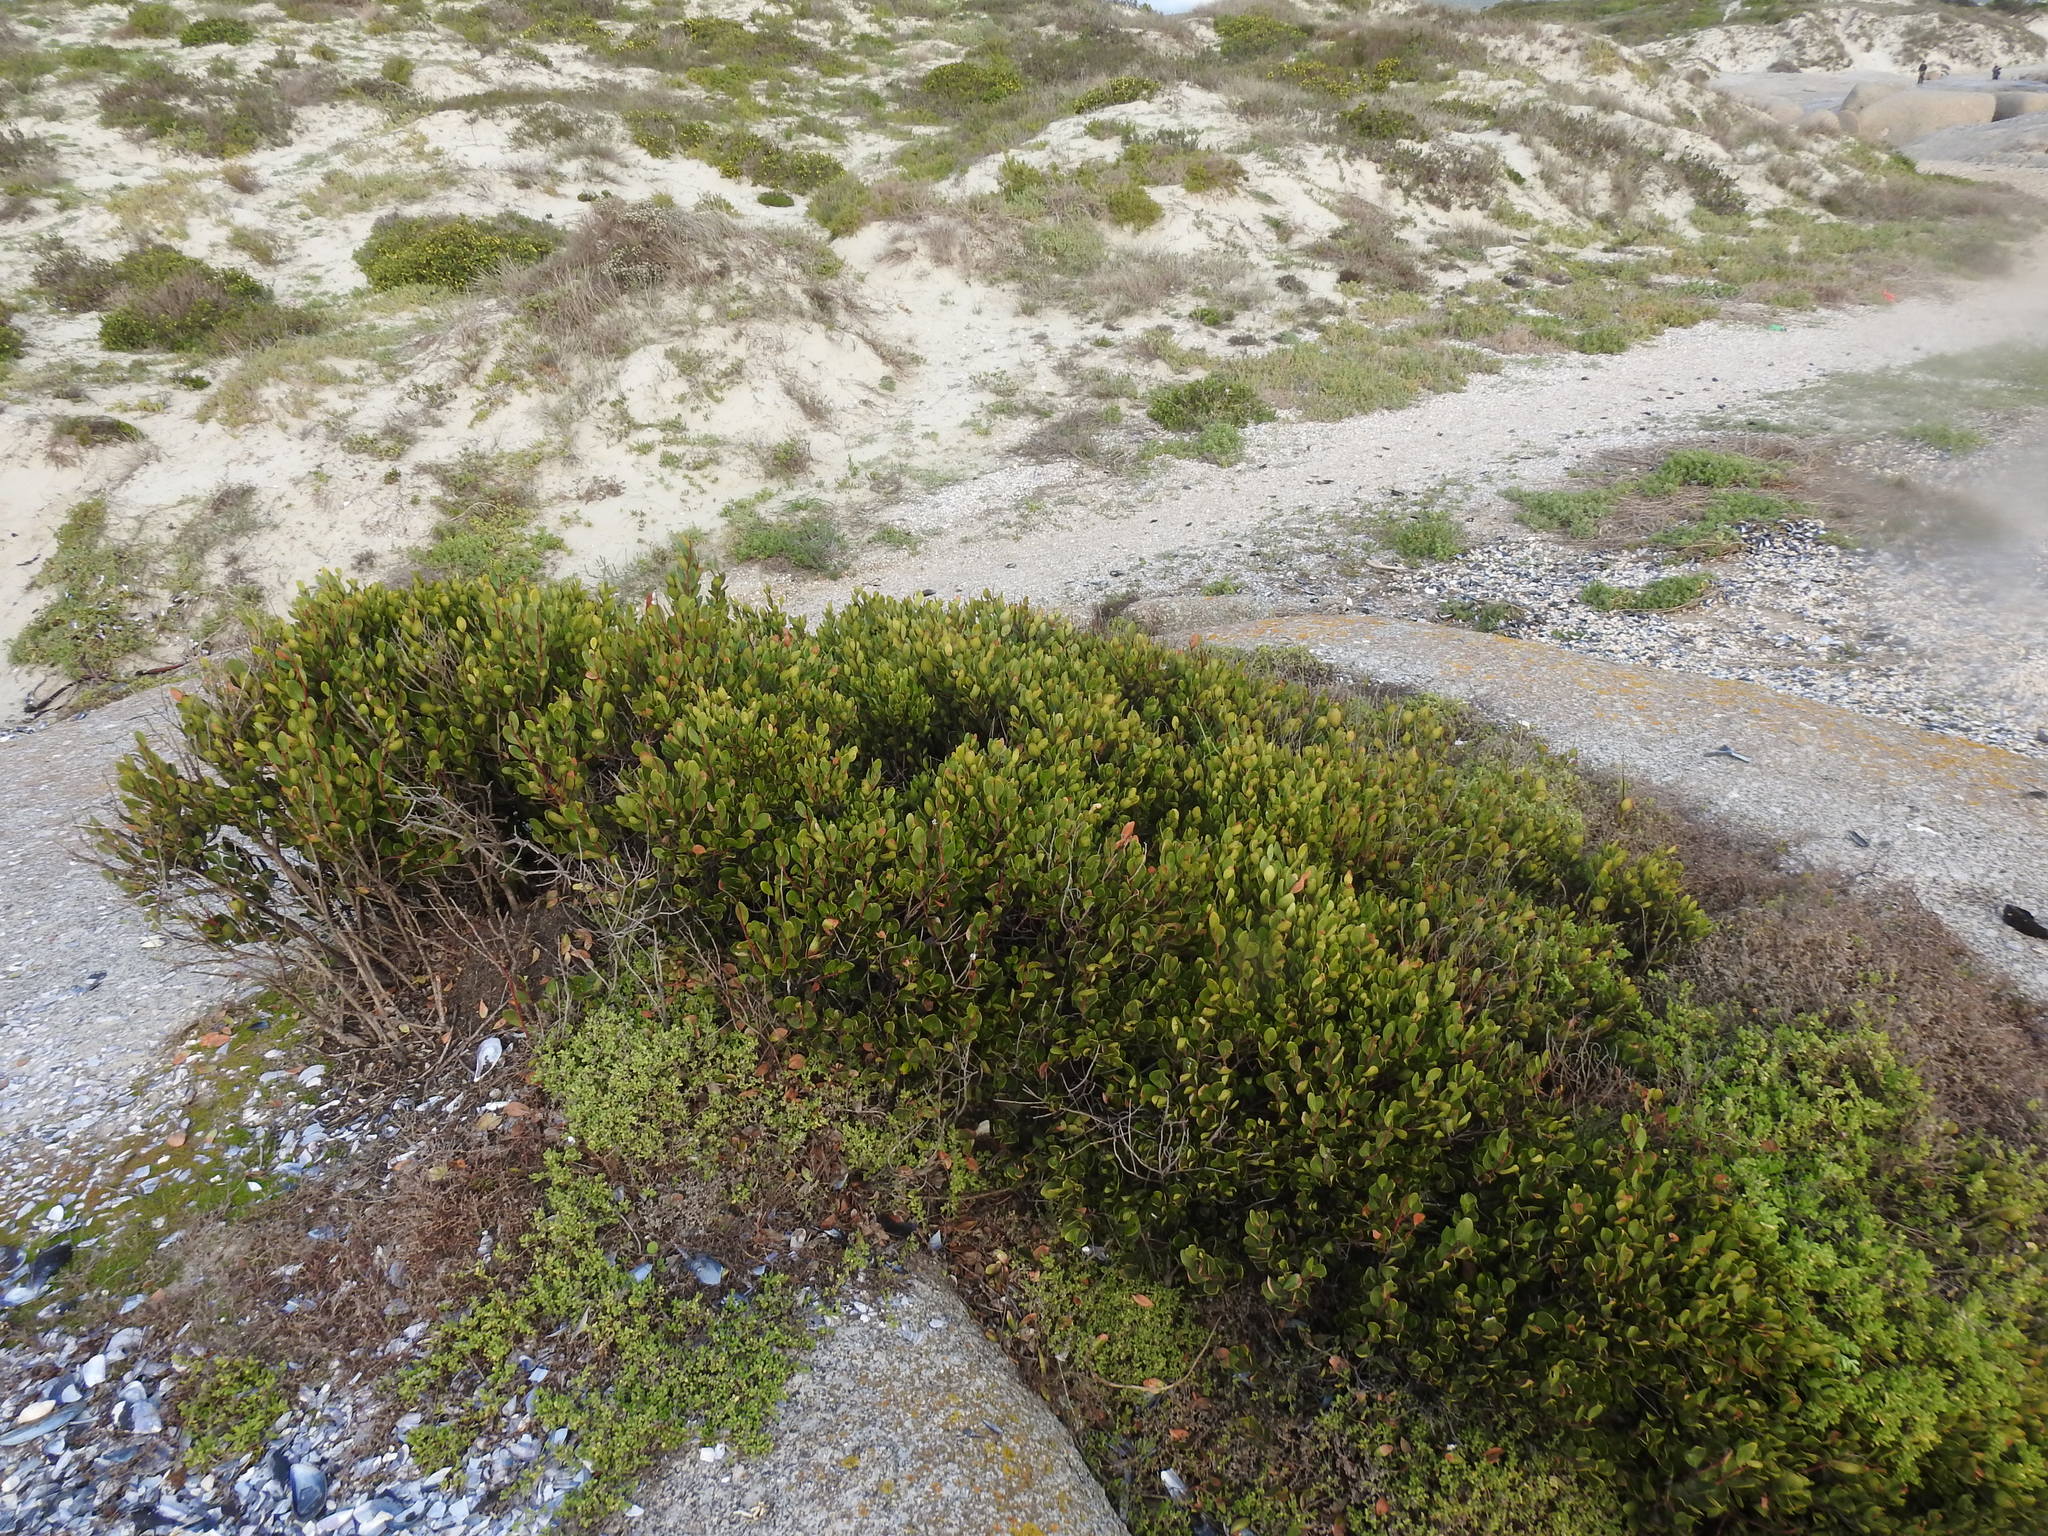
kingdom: Plantae
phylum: Tracheophyta
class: Magnoliopsida
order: Ericales
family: Ebenaceae
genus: Euclea
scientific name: Euclea racemosa
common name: Dune guarri
